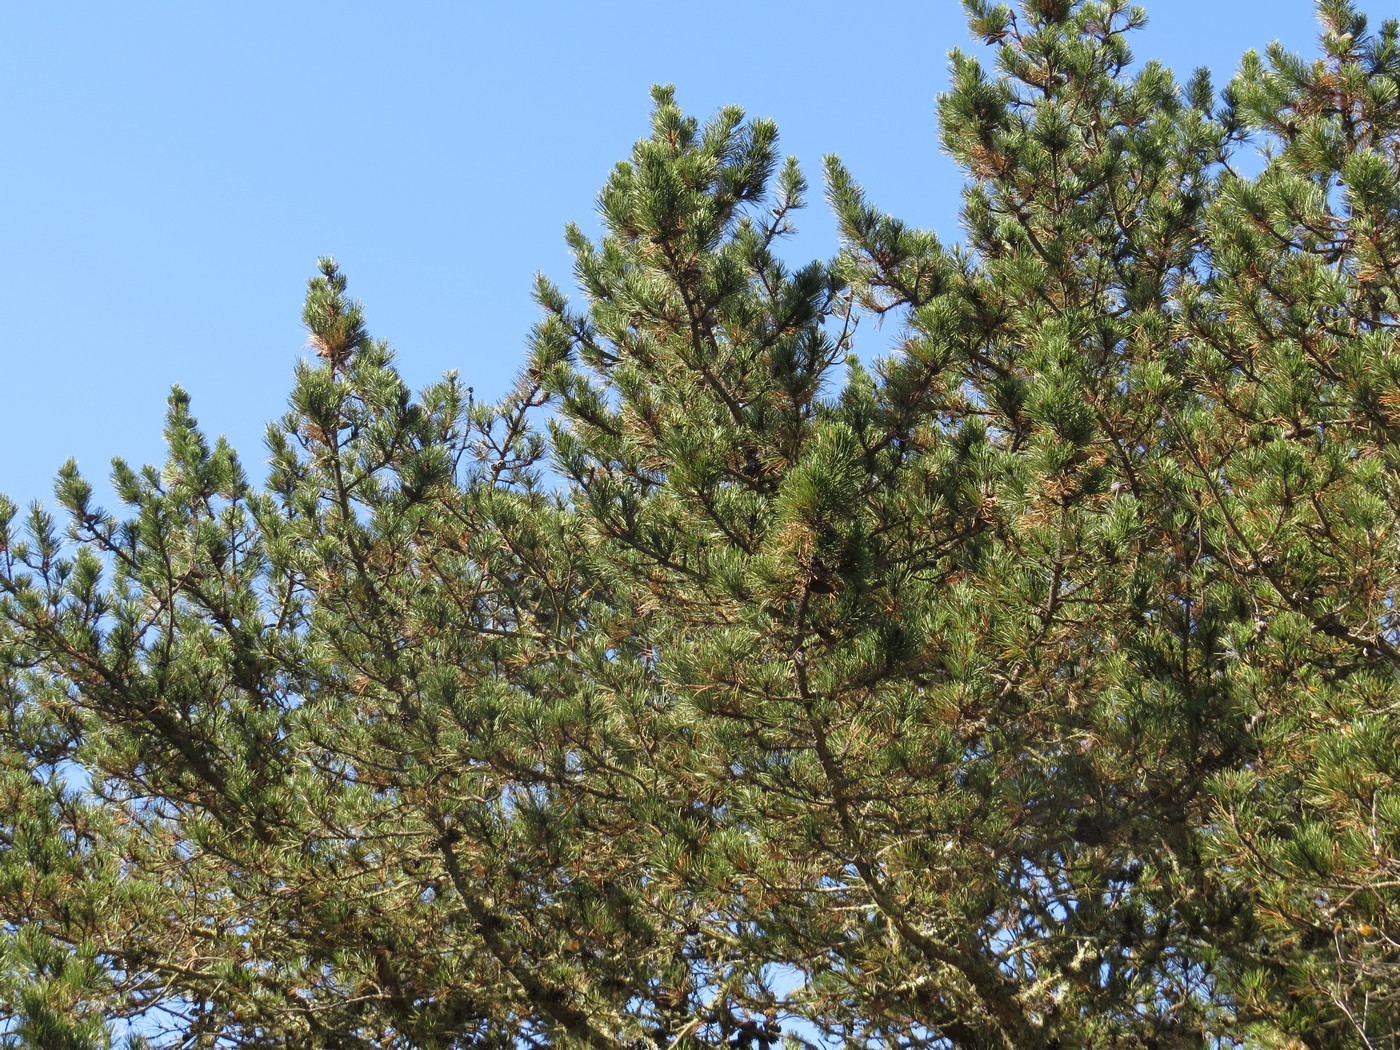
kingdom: Plantae
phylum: Tracheophyta
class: Pinopsida
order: Pinales
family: Pinaceae
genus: Pinus
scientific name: Pinus muricata
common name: Bishop pine
